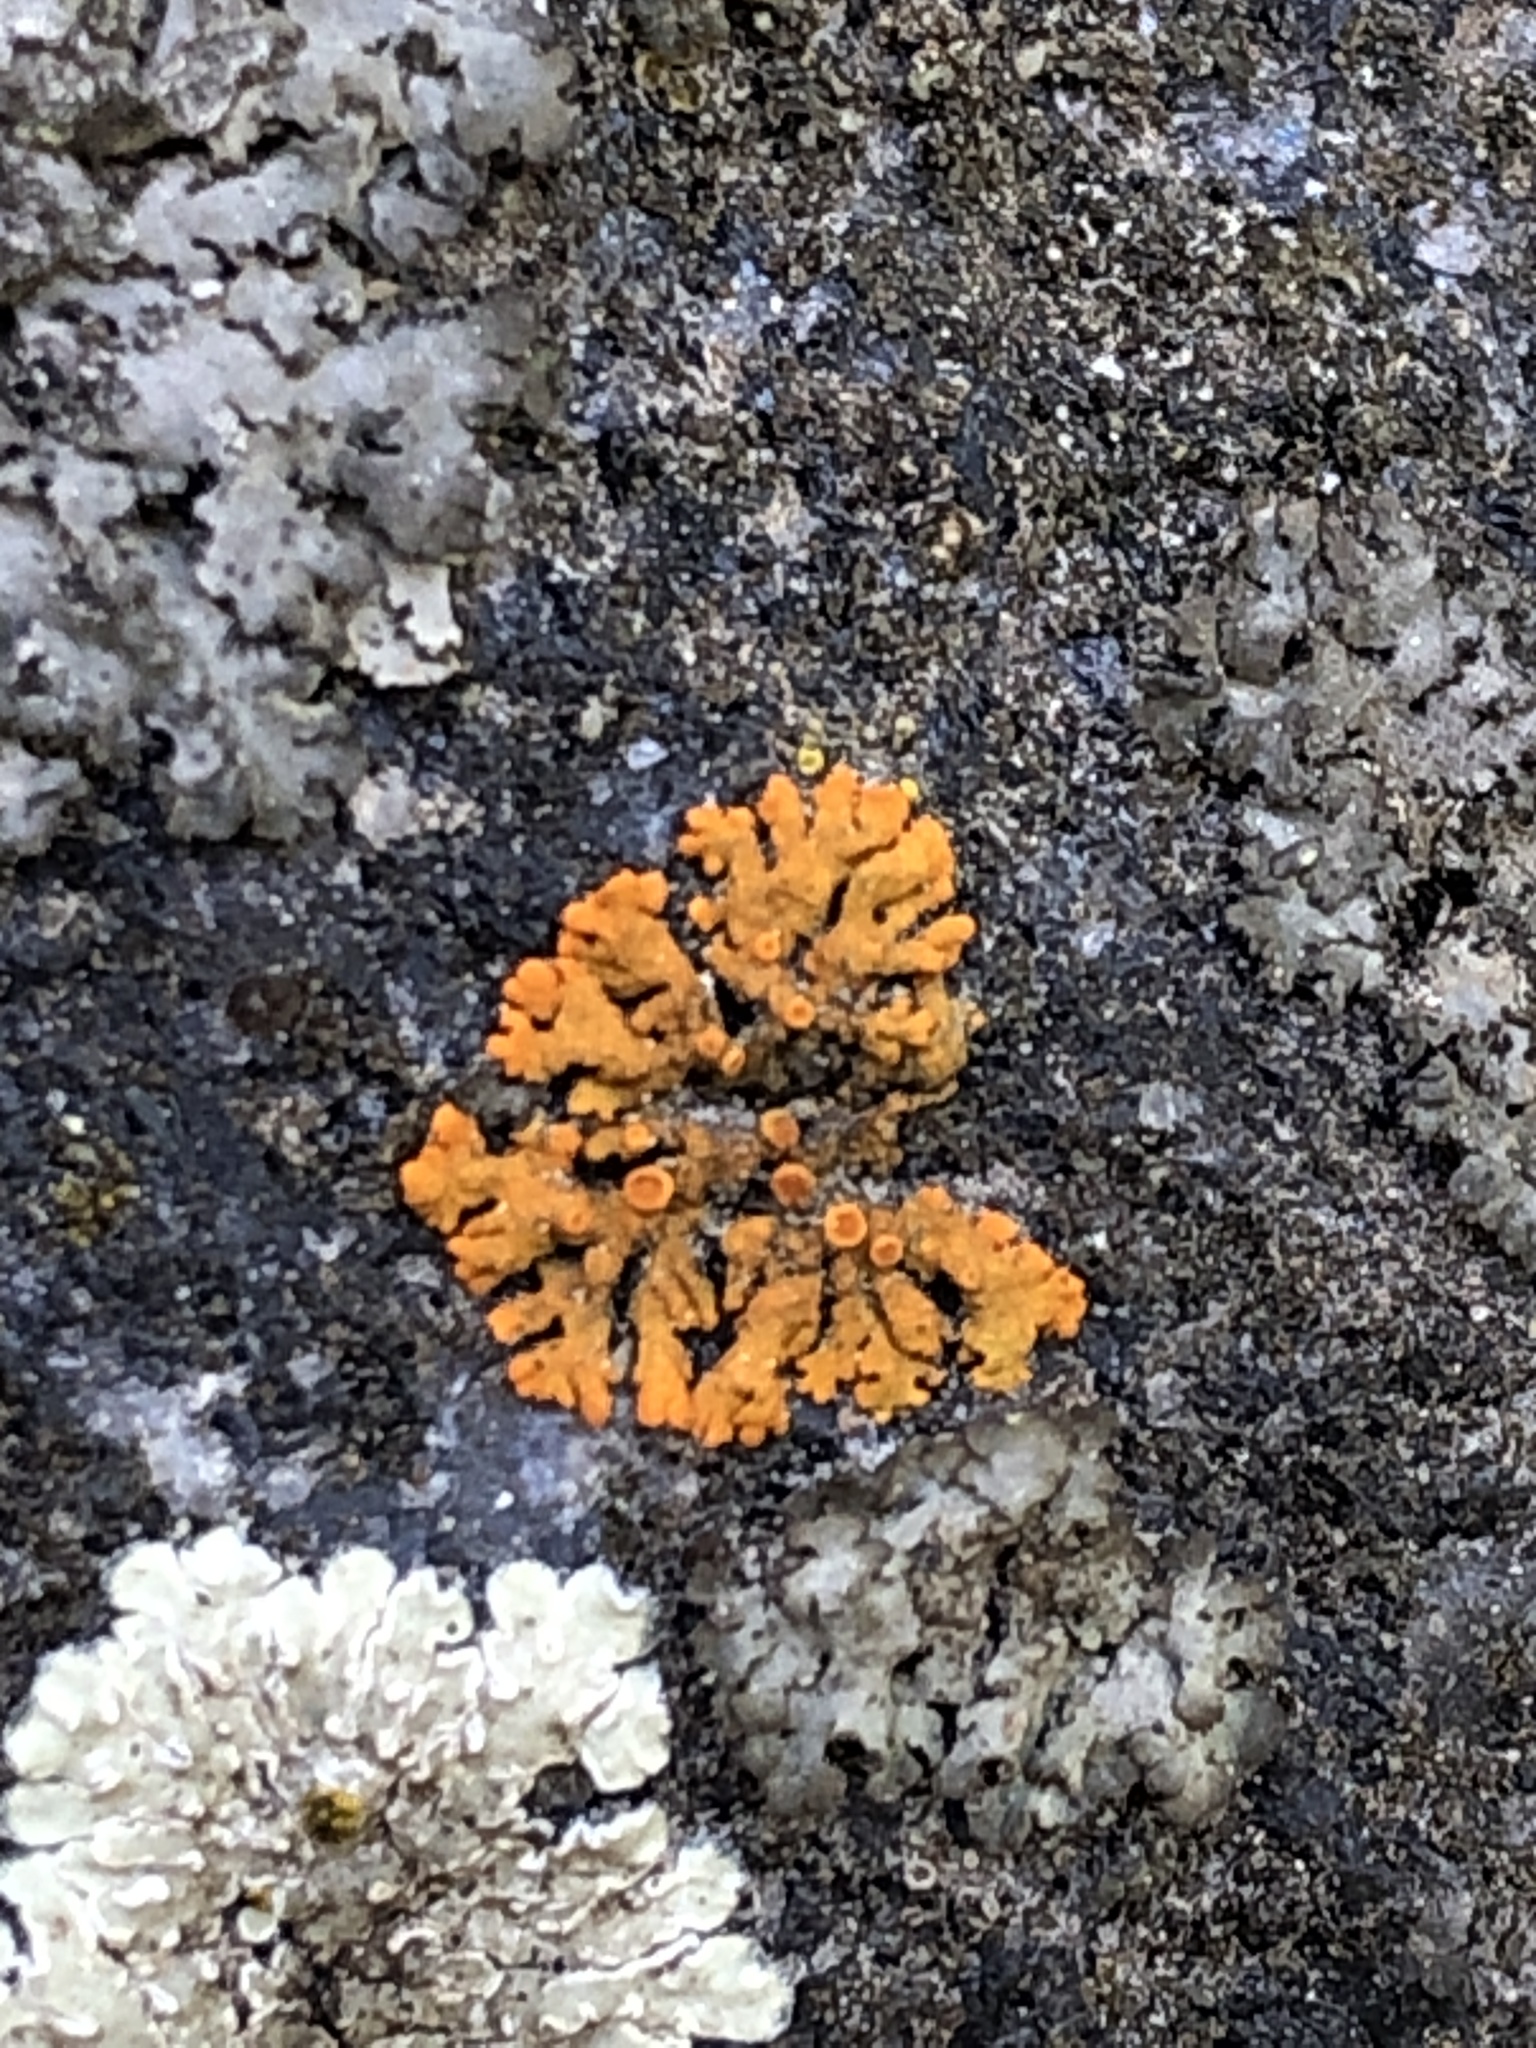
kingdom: Fungi
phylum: Ascomycota
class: Lecanoromycetes
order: Teloschistales
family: Teloschistaceae
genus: Xanthoria
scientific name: Xanthoria elegans
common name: Elegant sunburst lichen
